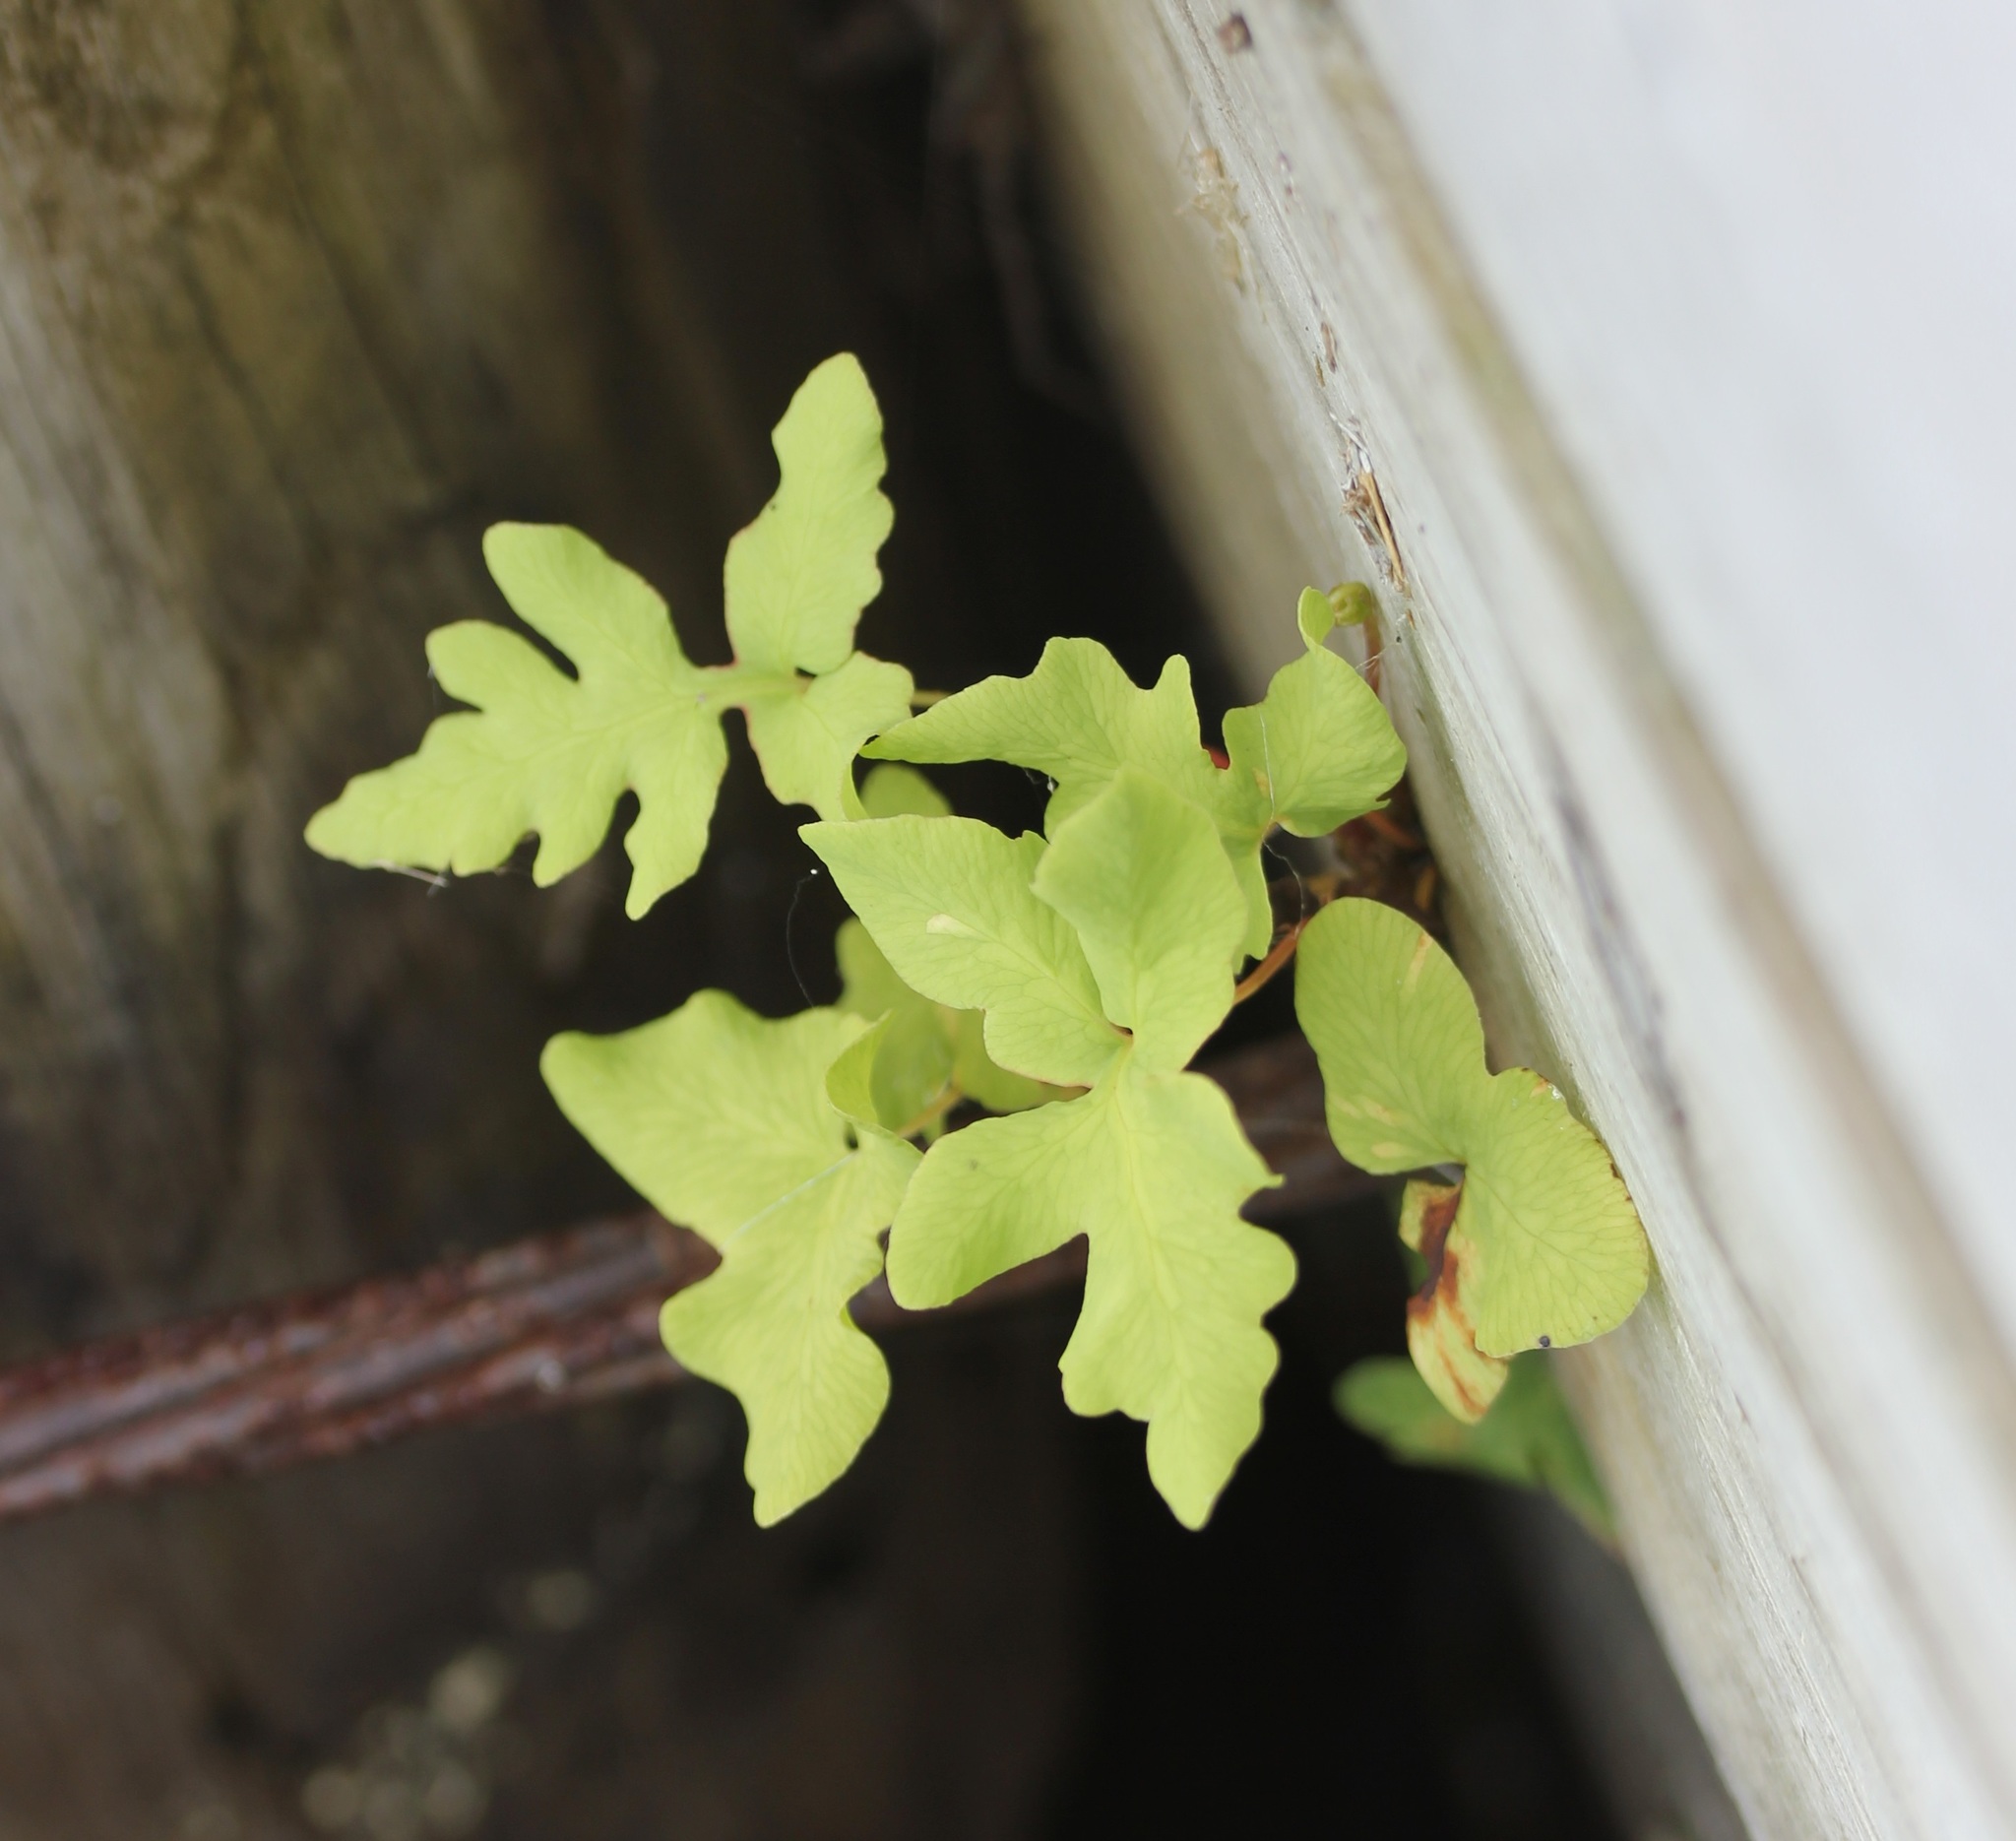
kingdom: Plantae
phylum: Tracheophyta
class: Polypodiopsida
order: Polypodiales
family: Onocleaceae
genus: Onoclea
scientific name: Onoclea sensibilis
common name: Sensitive fern
